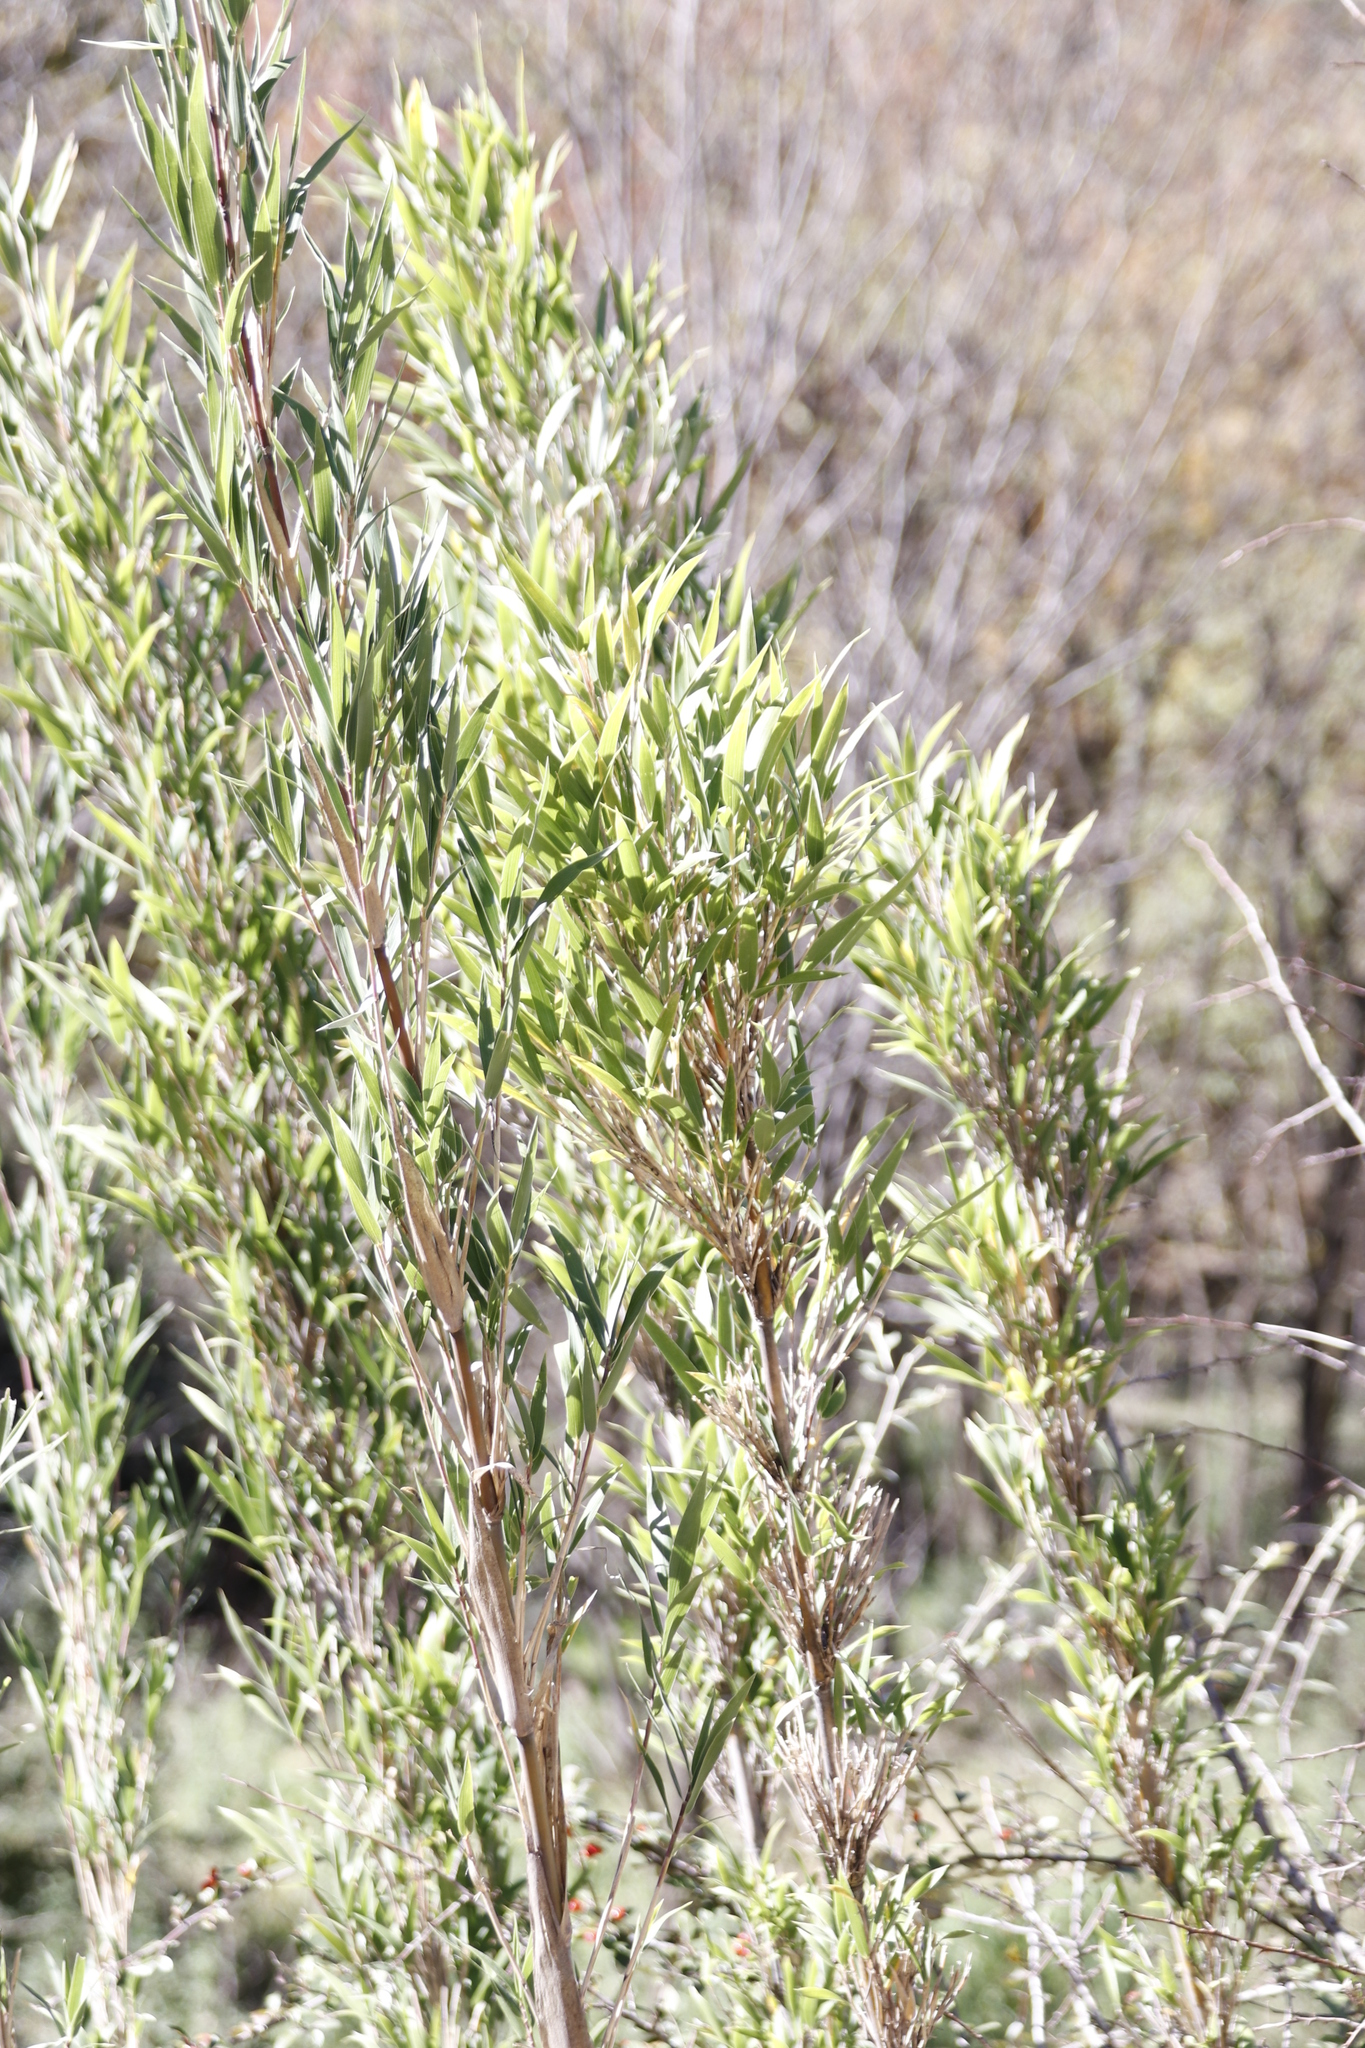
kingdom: Plantae
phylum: Tracheophyta
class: Liliopsida
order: Poales
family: Poaceae
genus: Bergbambos
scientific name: Bergbambos tessellata
